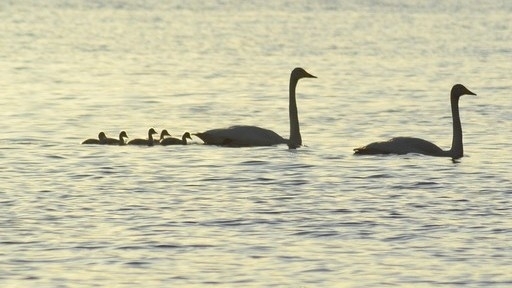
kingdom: Animalia
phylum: Chordata
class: Aves
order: Anseriformes
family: Anatidae
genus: Cygnus
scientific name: Cygnus cygnus
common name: Whooper swan
